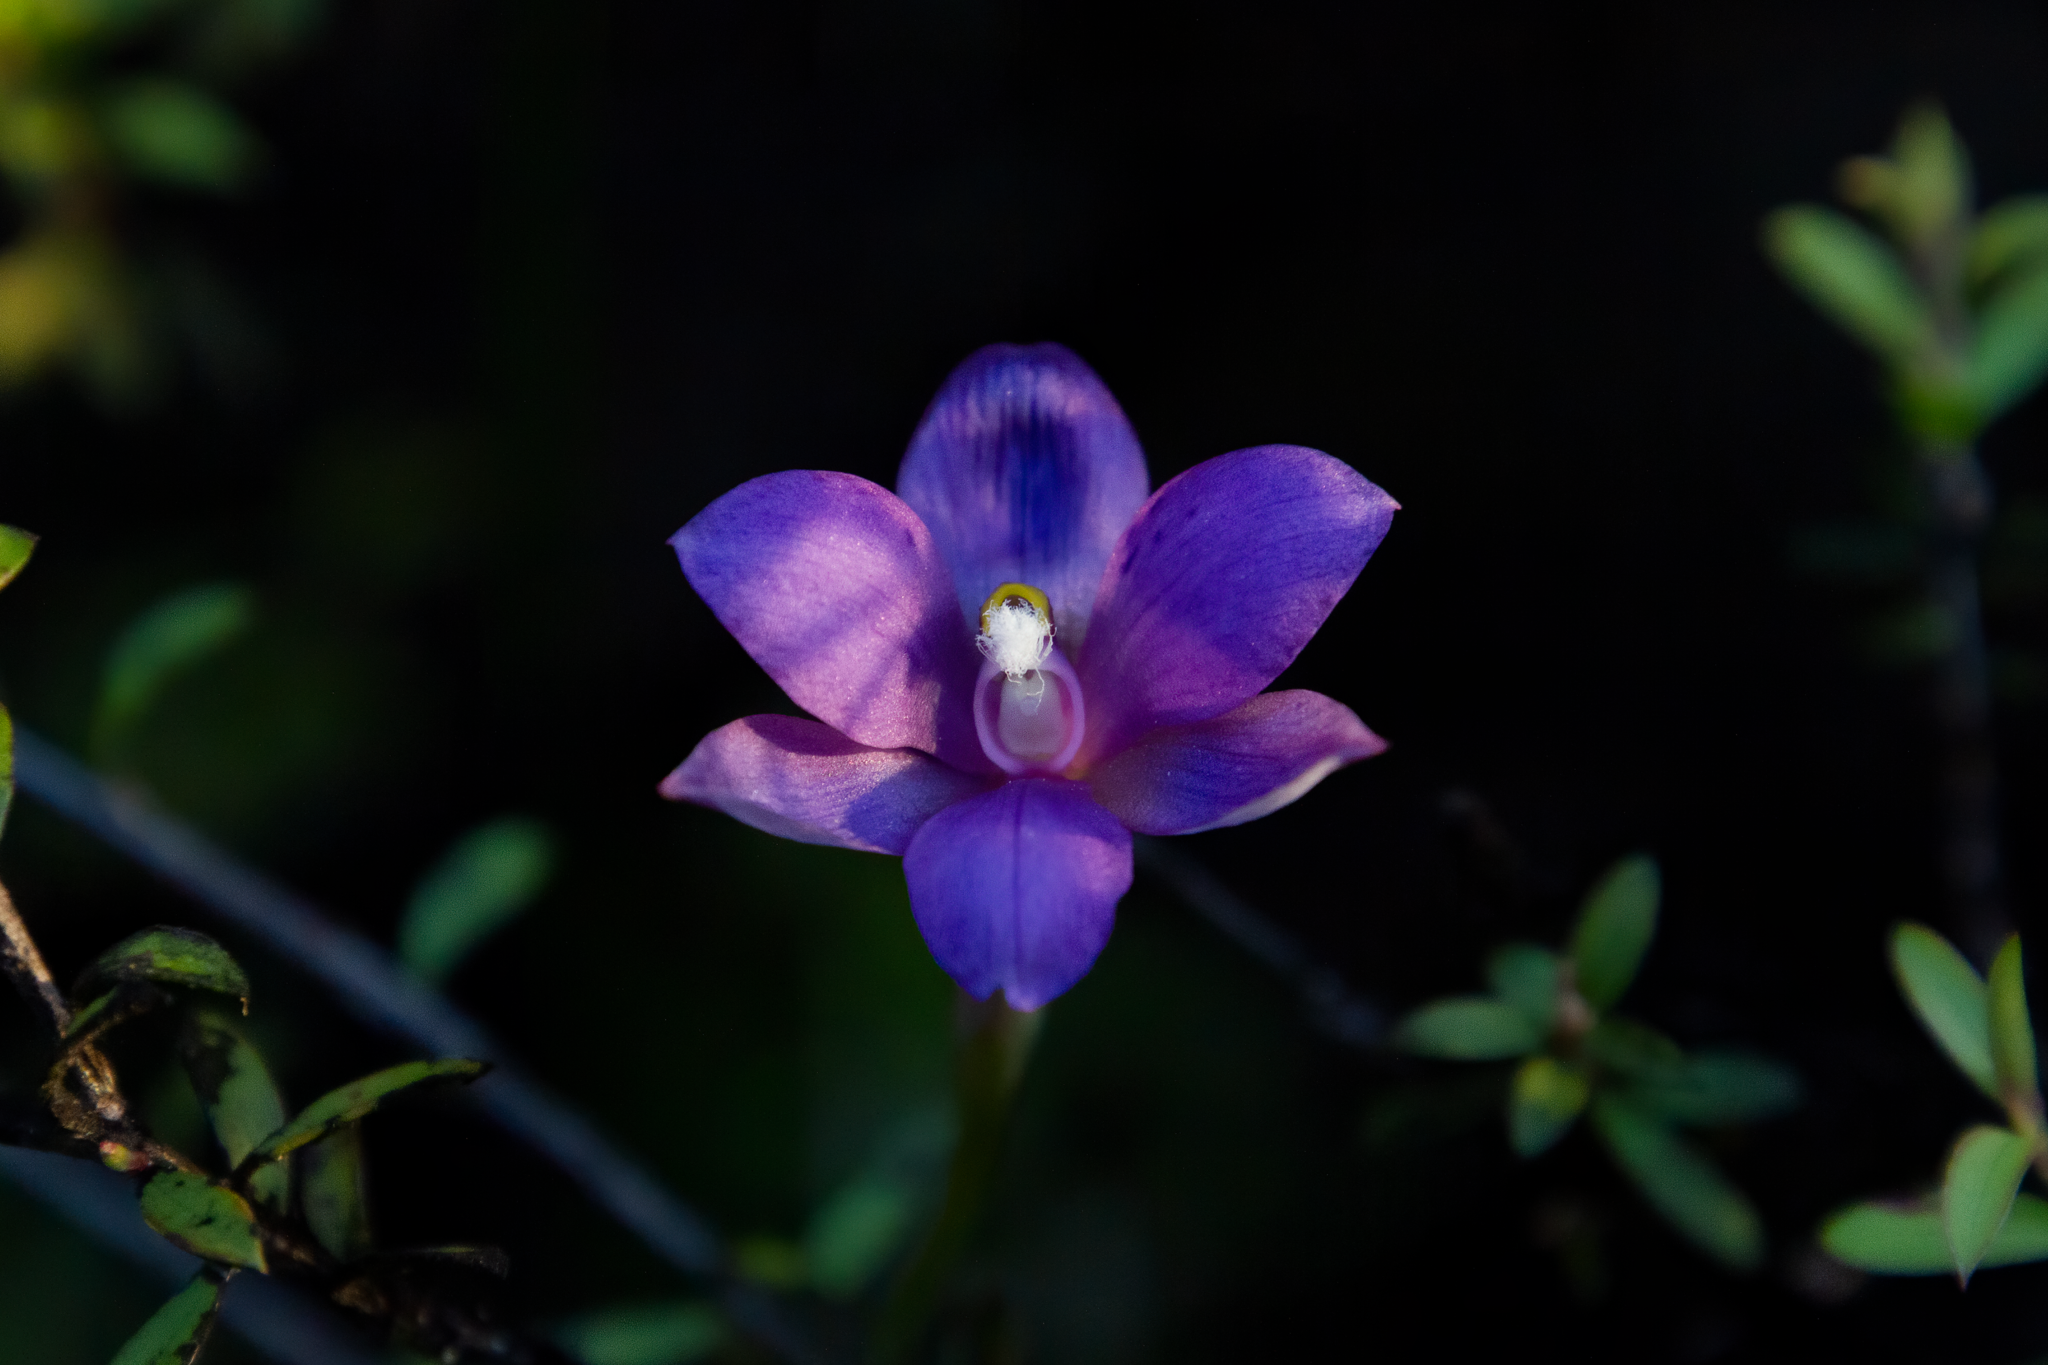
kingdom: Plantae
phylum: Tracheophyta
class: Liliopsida
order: Asparagales
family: Orchidaceae
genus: Thelymitra
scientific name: Thelymitra nervosa
